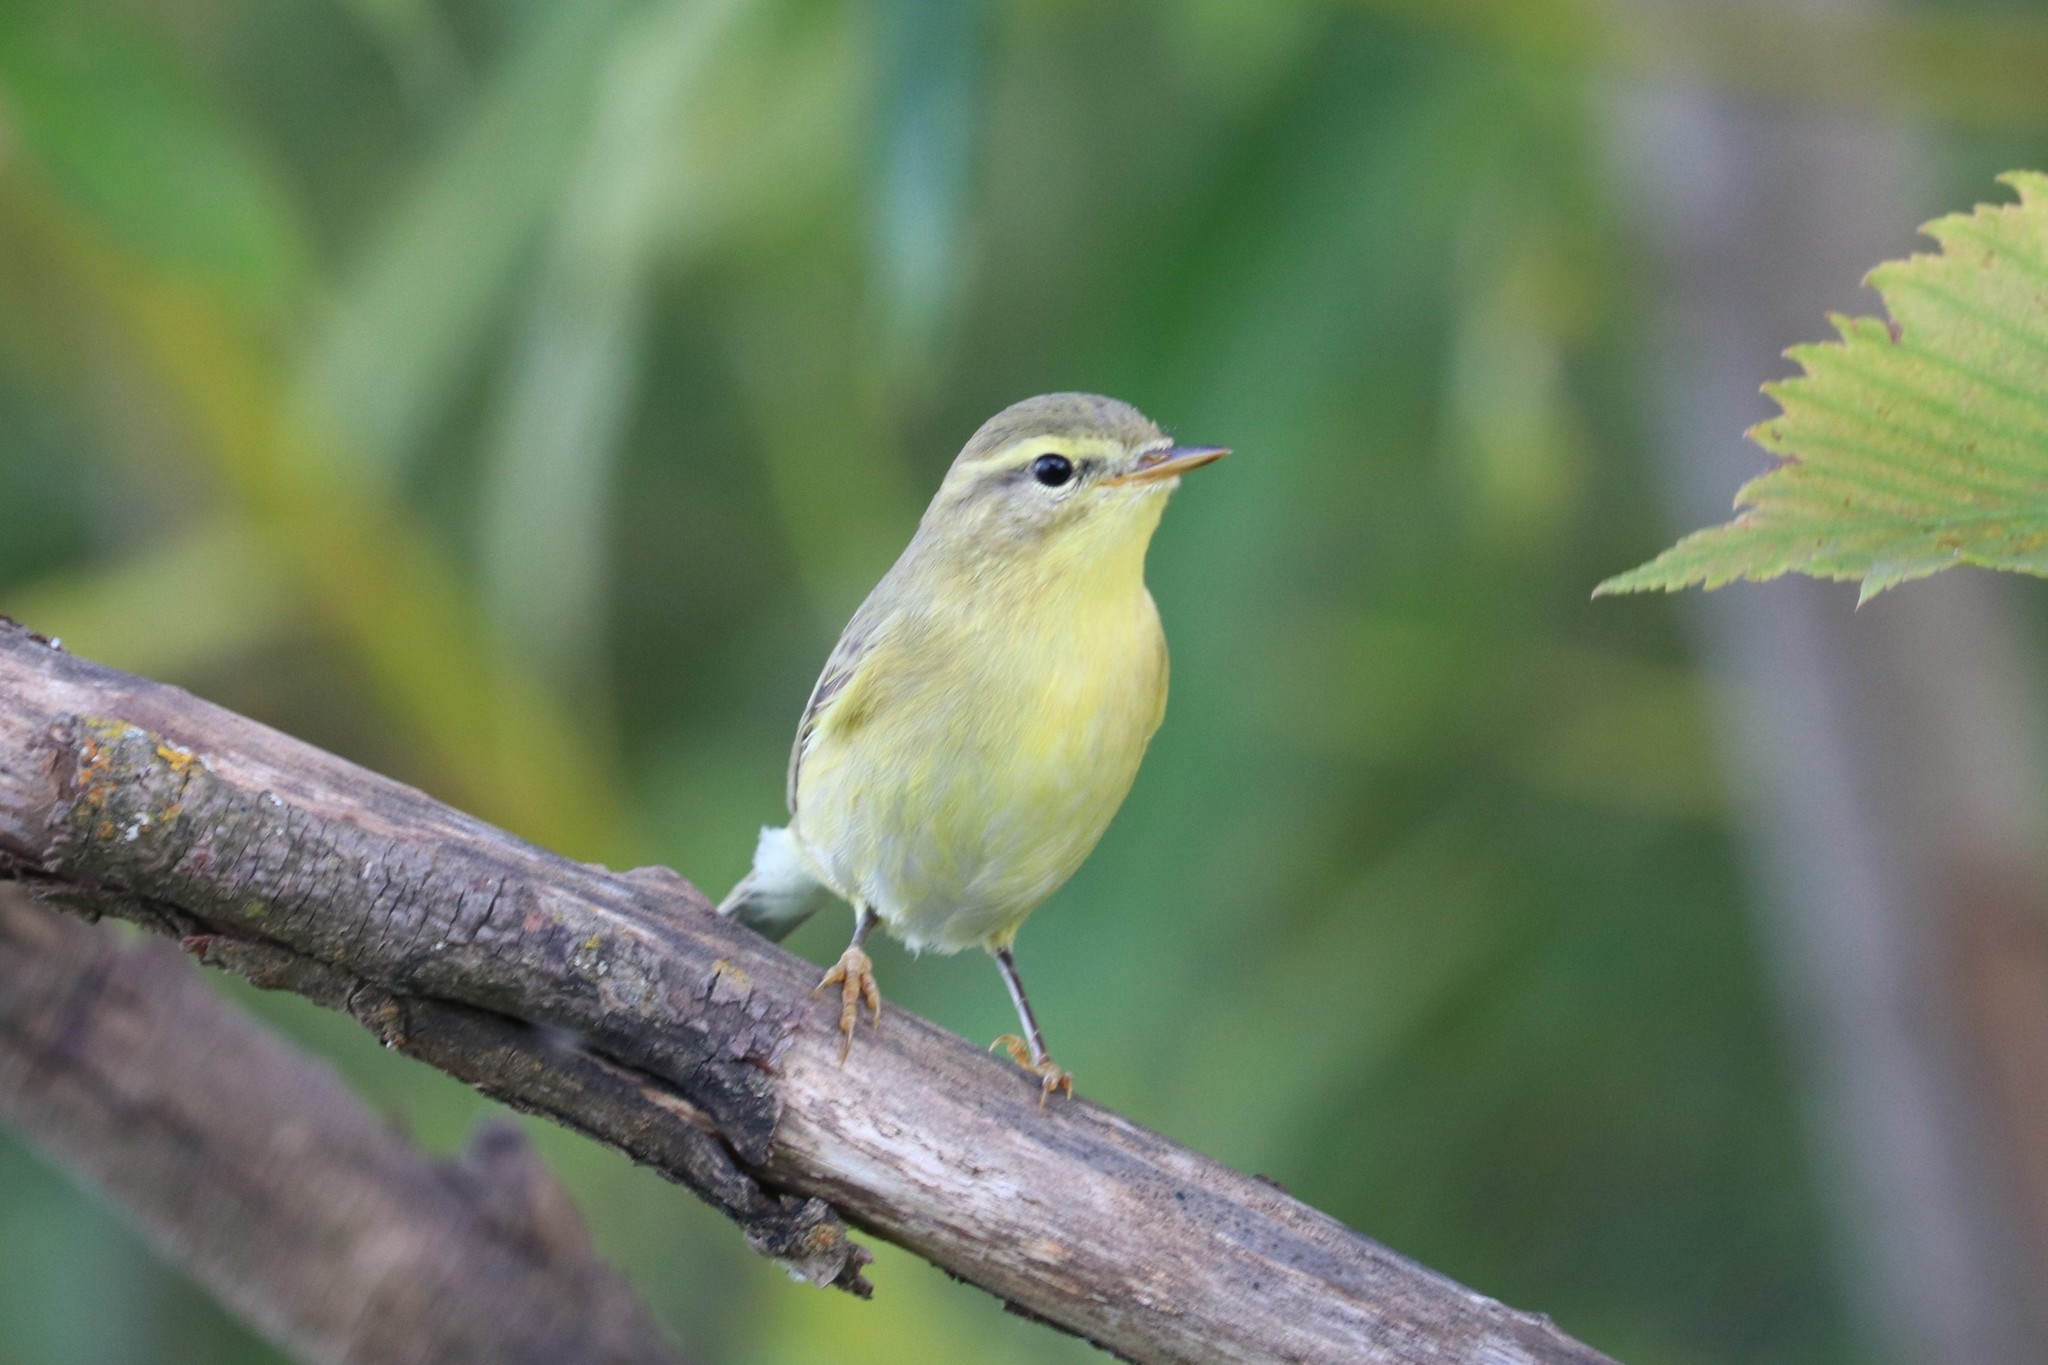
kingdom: Animalia
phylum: Chordata
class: Aves
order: Passeriformes
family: Phylloscopidae
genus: Phylloscopus
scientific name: Phylloscopus trochilus
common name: Willow warbler
